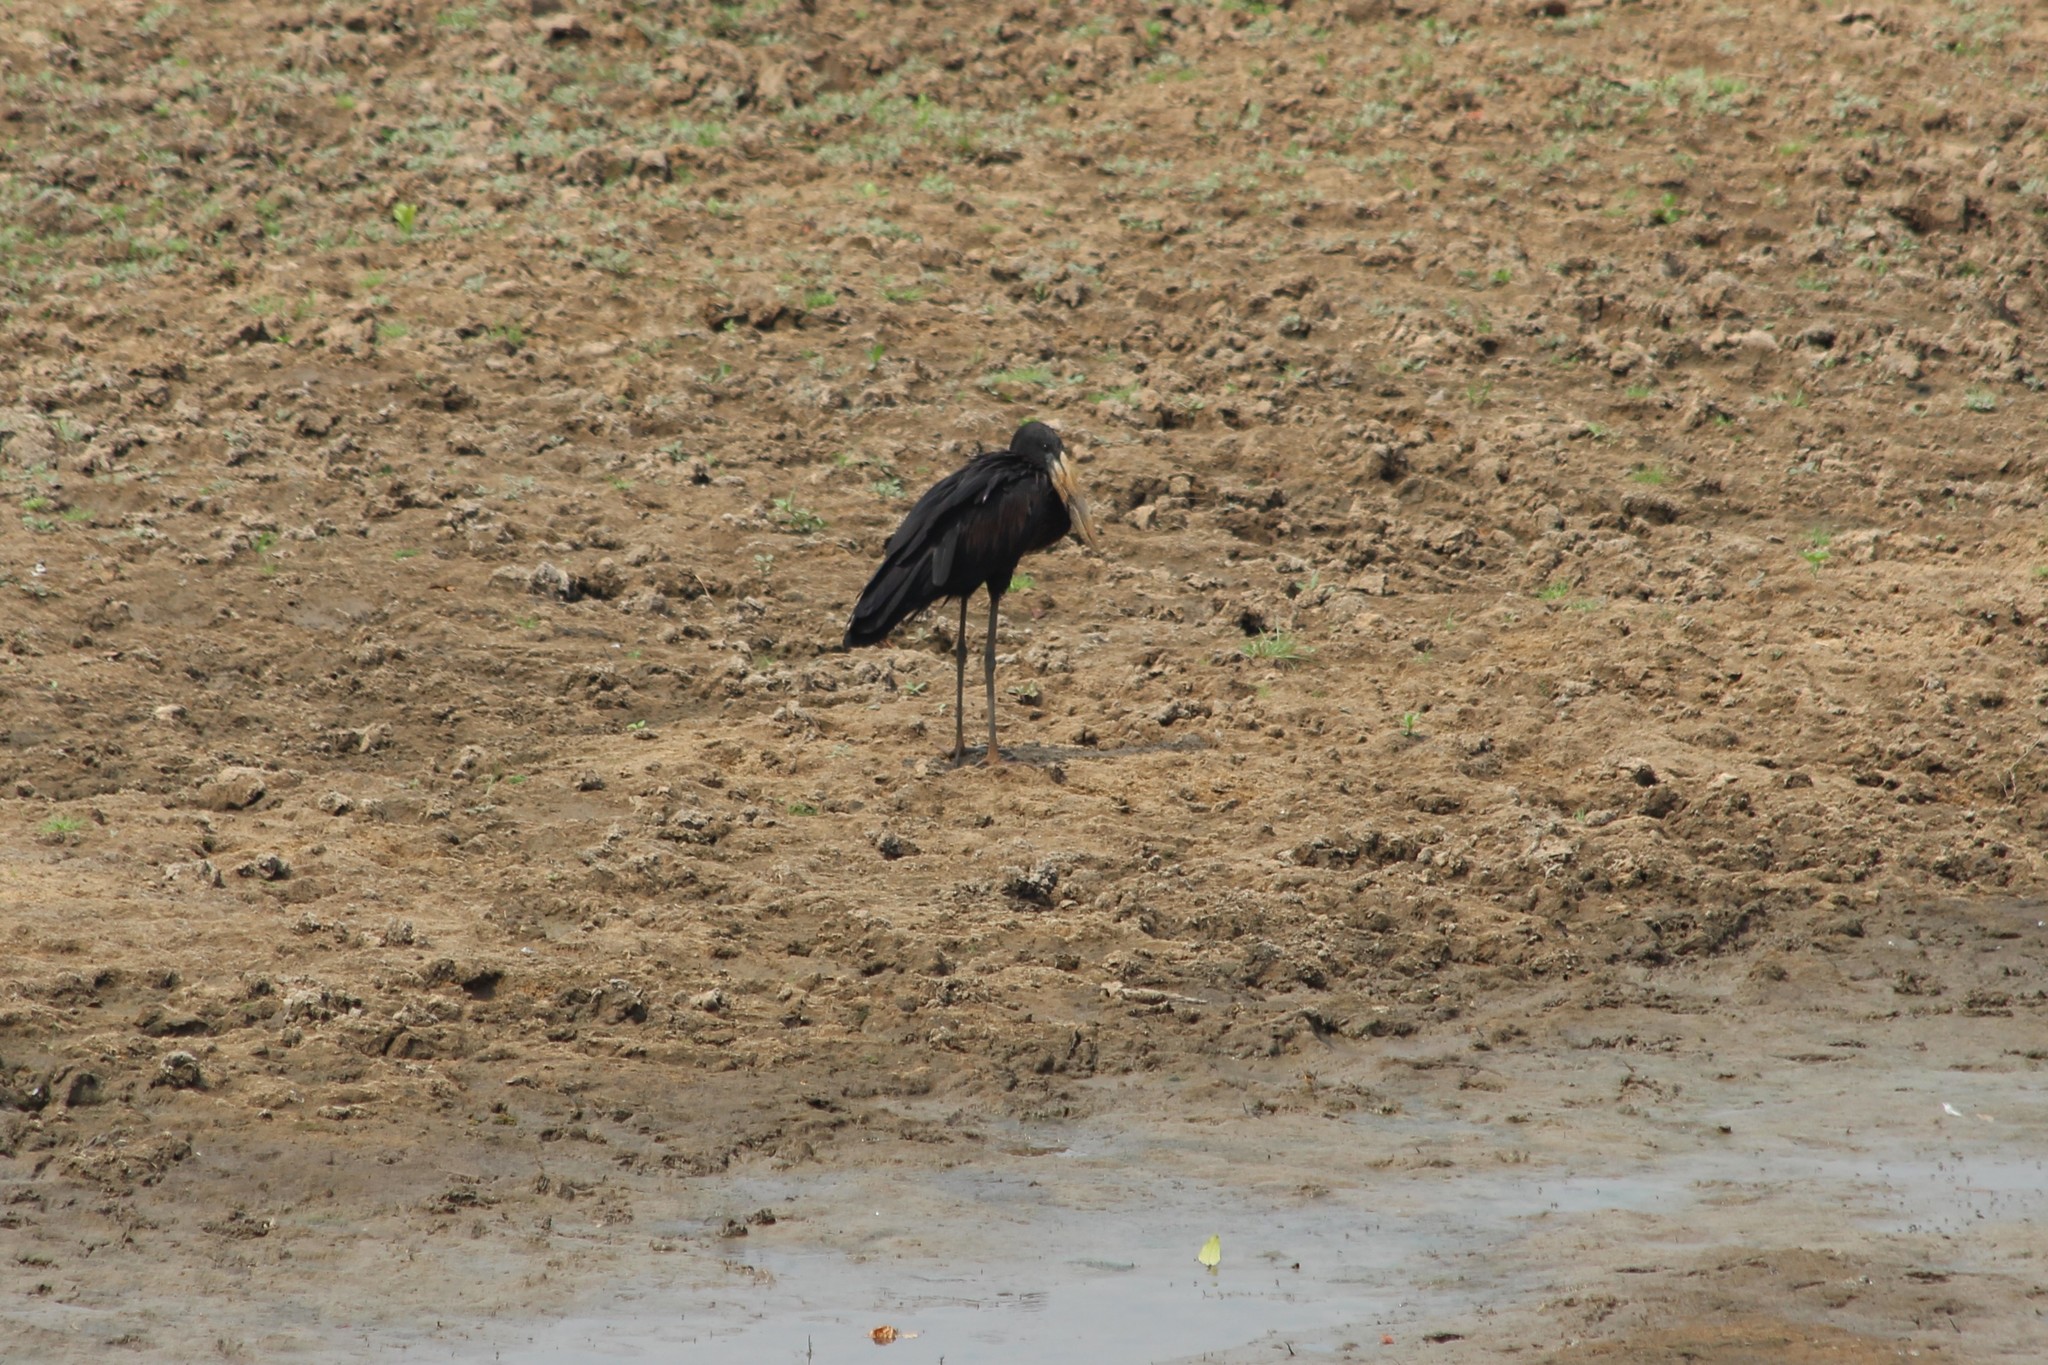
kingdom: Animalia
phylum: Chordata
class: Aves
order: Ciconiiformes
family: Ciconiidae
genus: Anastomus
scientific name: Anastomus lamelligerus
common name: African openbill
